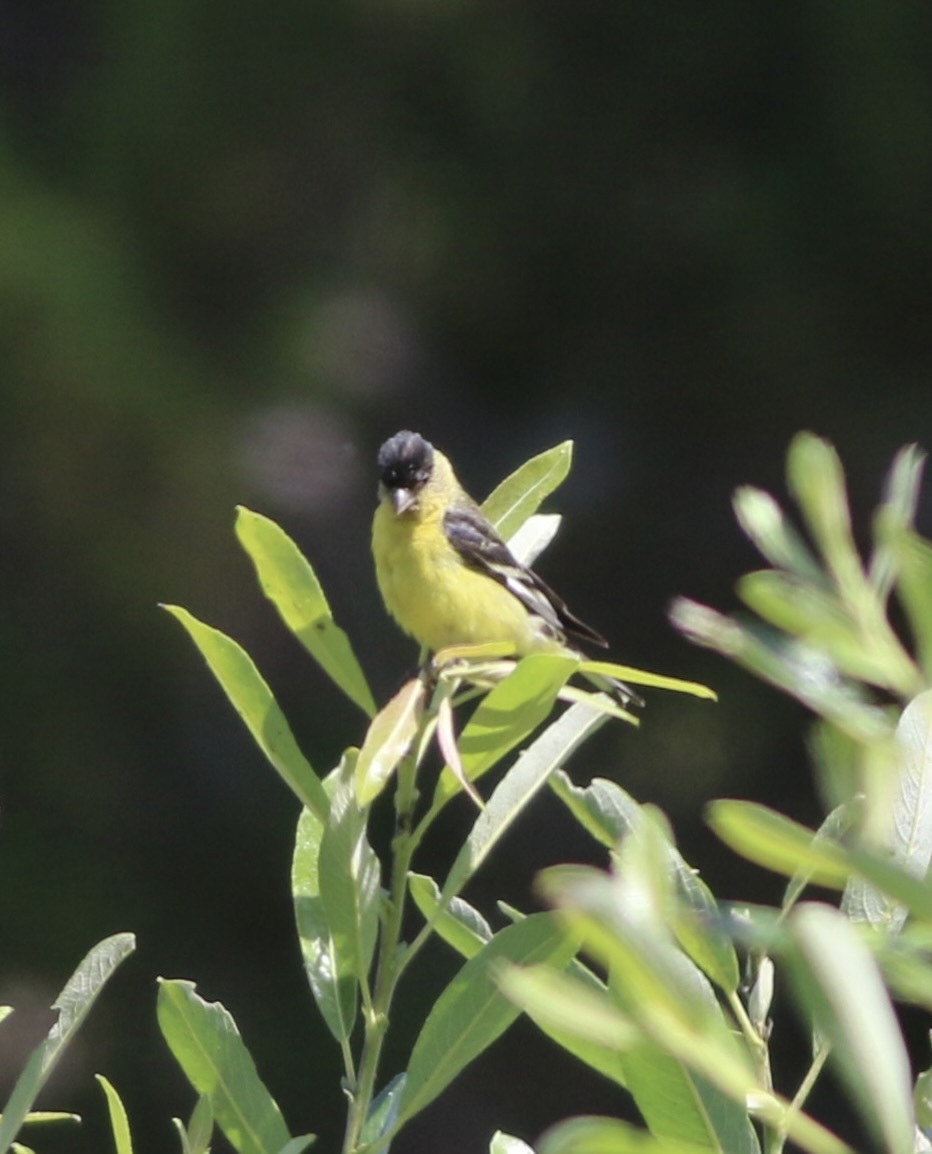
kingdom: Animalia
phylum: Chordata
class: Aves
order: Passeriformes
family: Fringillidae
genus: Spinus
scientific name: Spinus psaltria
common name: Lesser goldfinch
